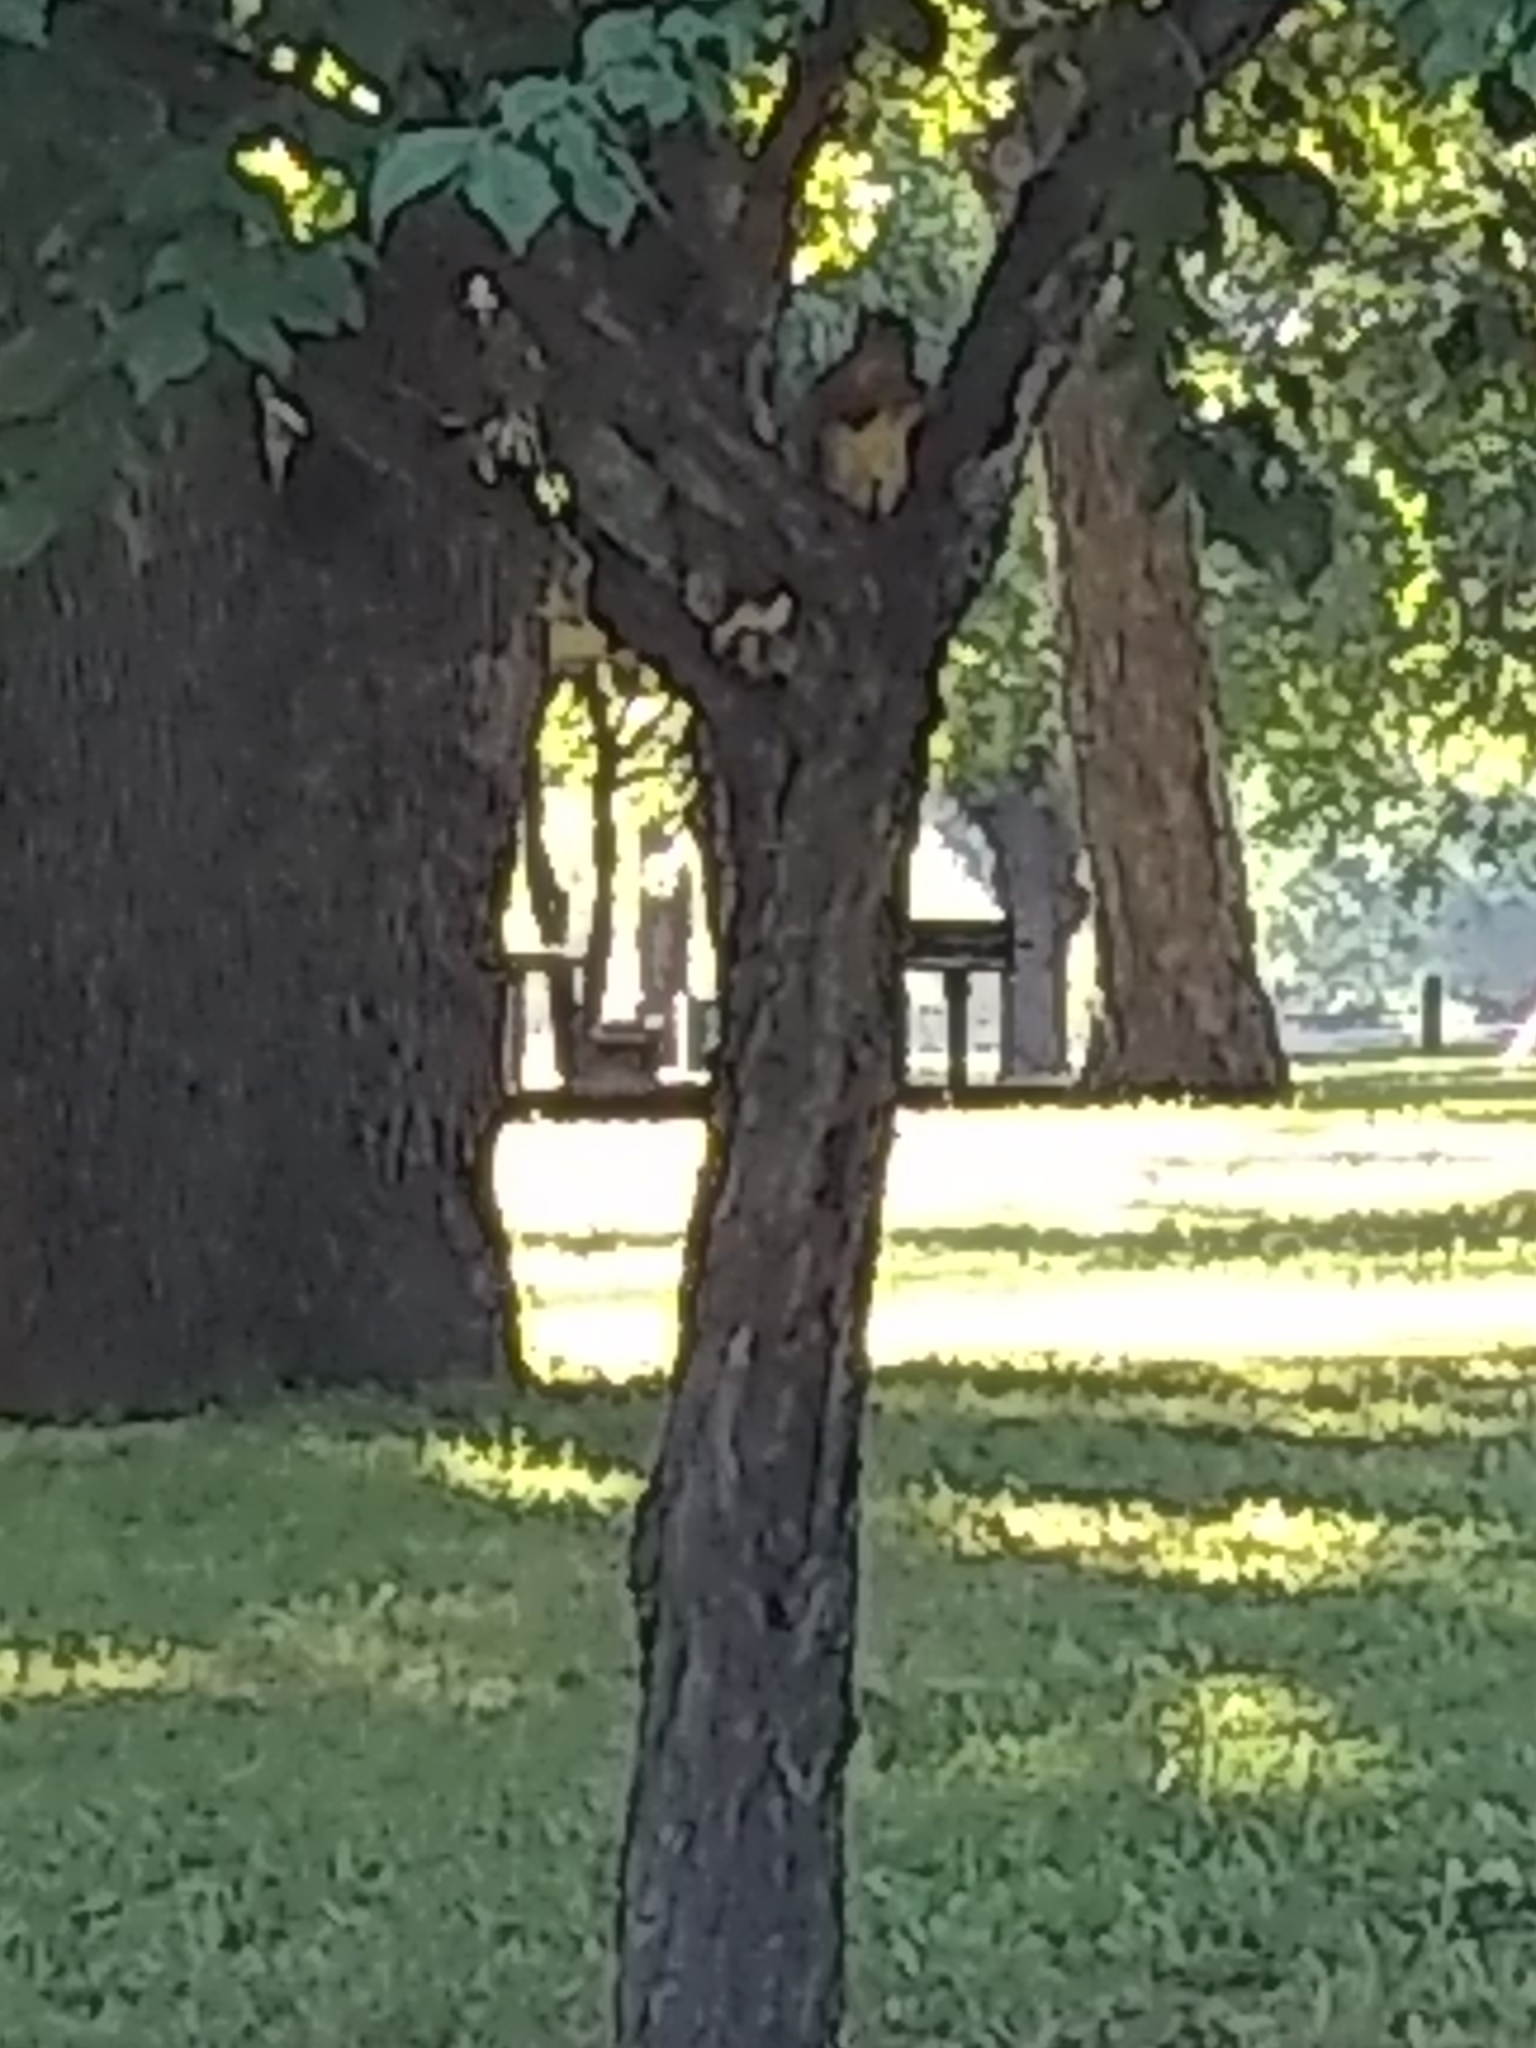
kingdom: Animalia
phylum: Chordata
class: Mammalia
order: Rodentia
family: Sciuridae
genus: Sciurus
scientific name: Sciurus niger
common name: Fox squirrel
